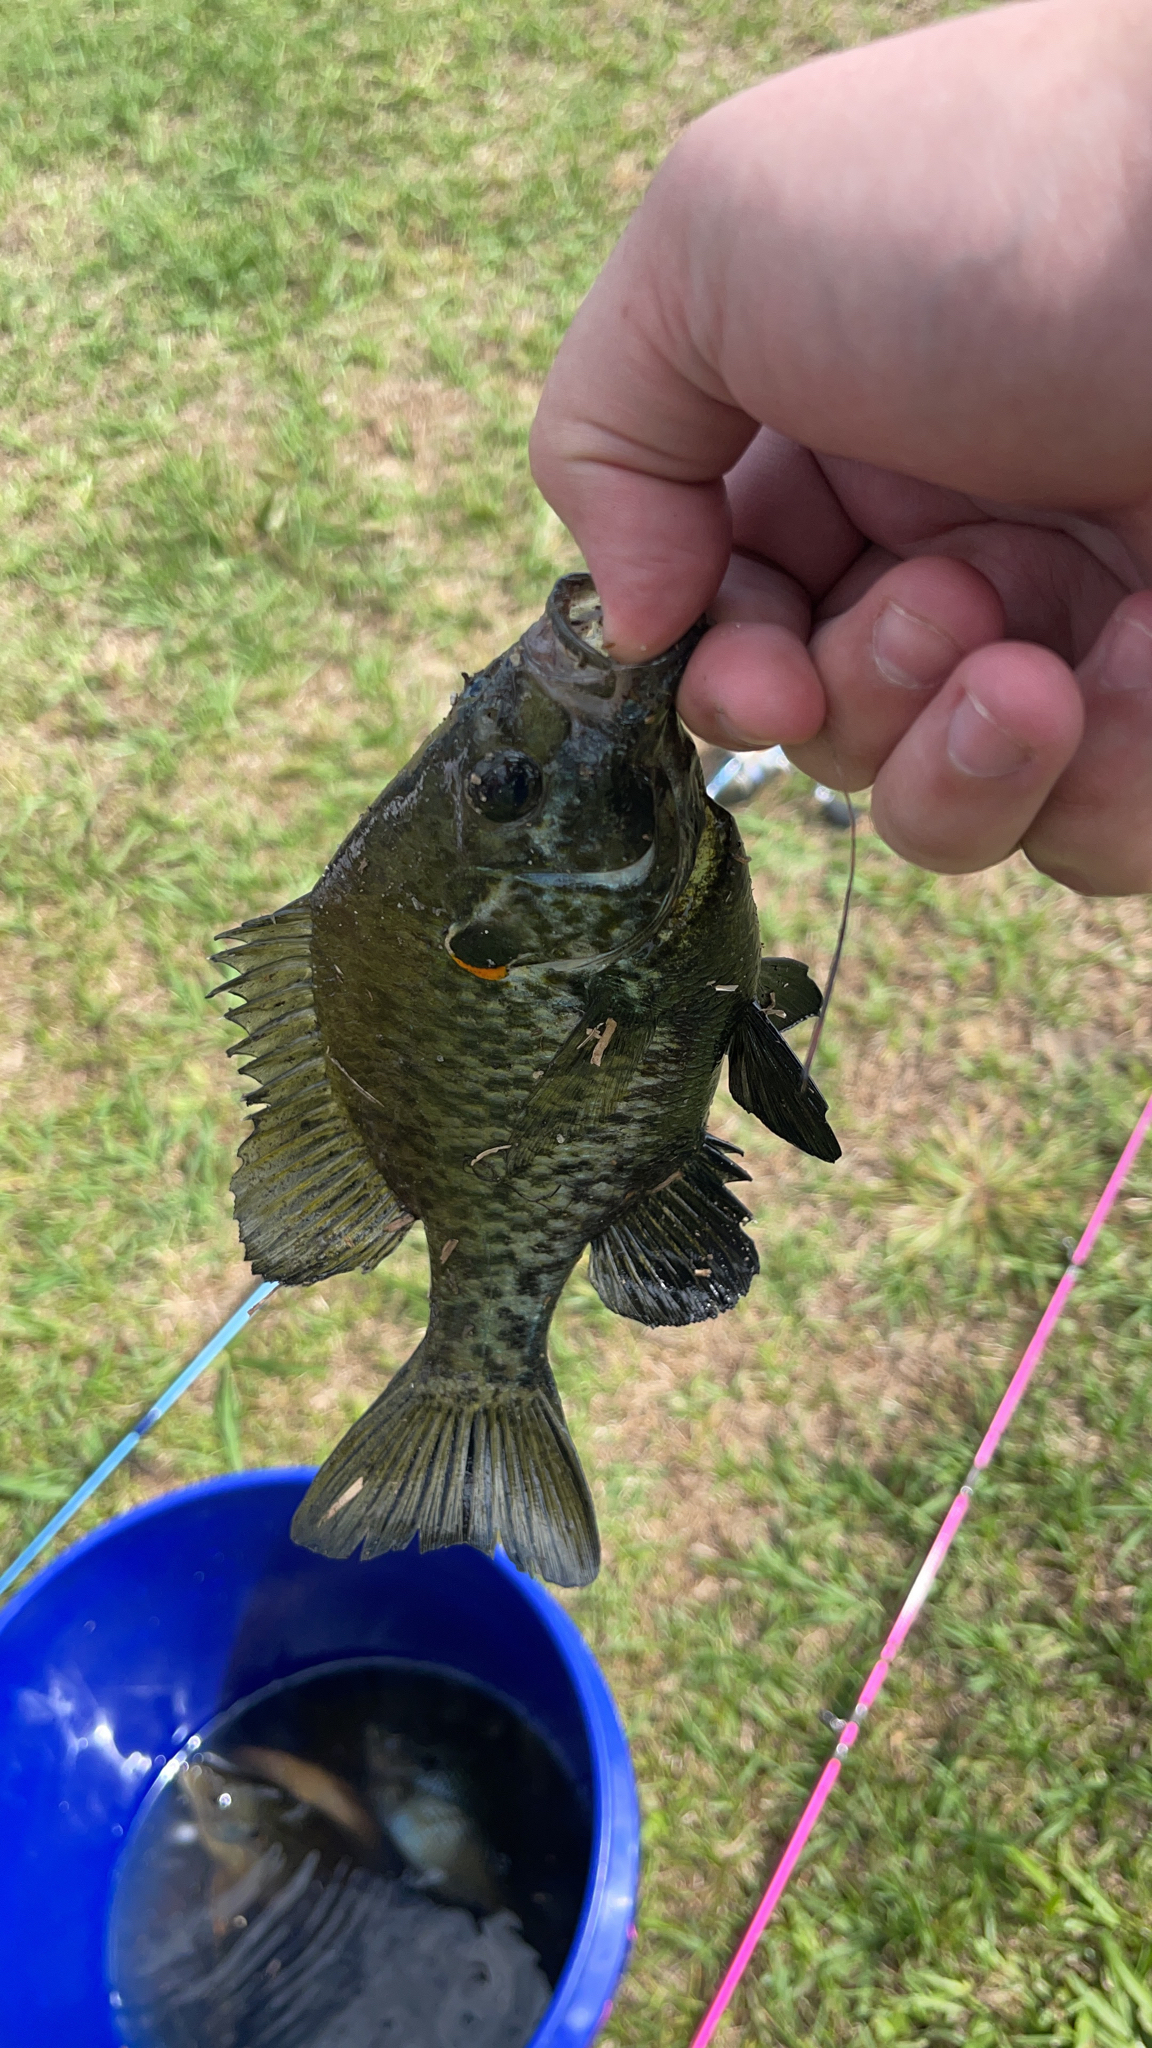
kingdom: Animalia
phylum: Chordata
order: Perciformes
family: Centrarchidae
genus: Lepomis
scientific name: Lepomis microlophus
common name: Redear sunfish
